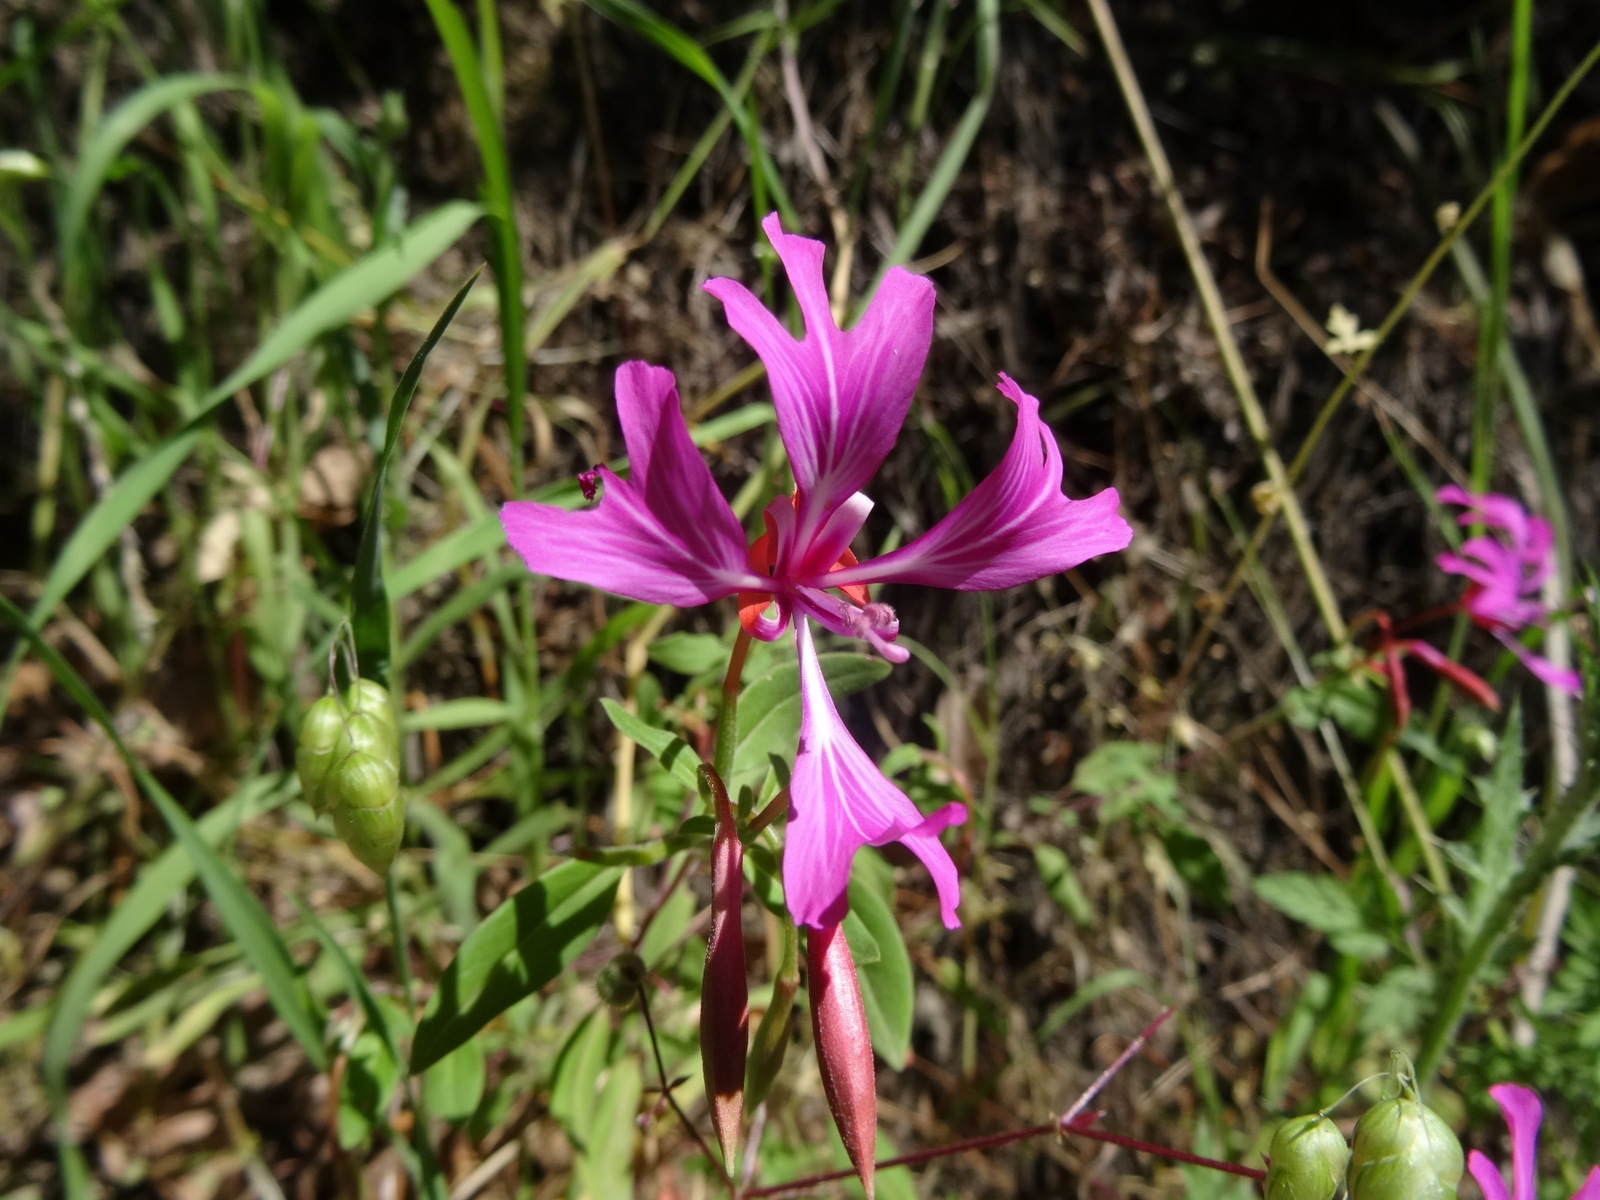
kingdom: Plantae
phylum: Tracheophyta
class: Magnoliopsida
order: Myrtales
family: Onagraceae
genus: Clarkia
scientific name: Clarkia concinna
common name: Red-ribbons
